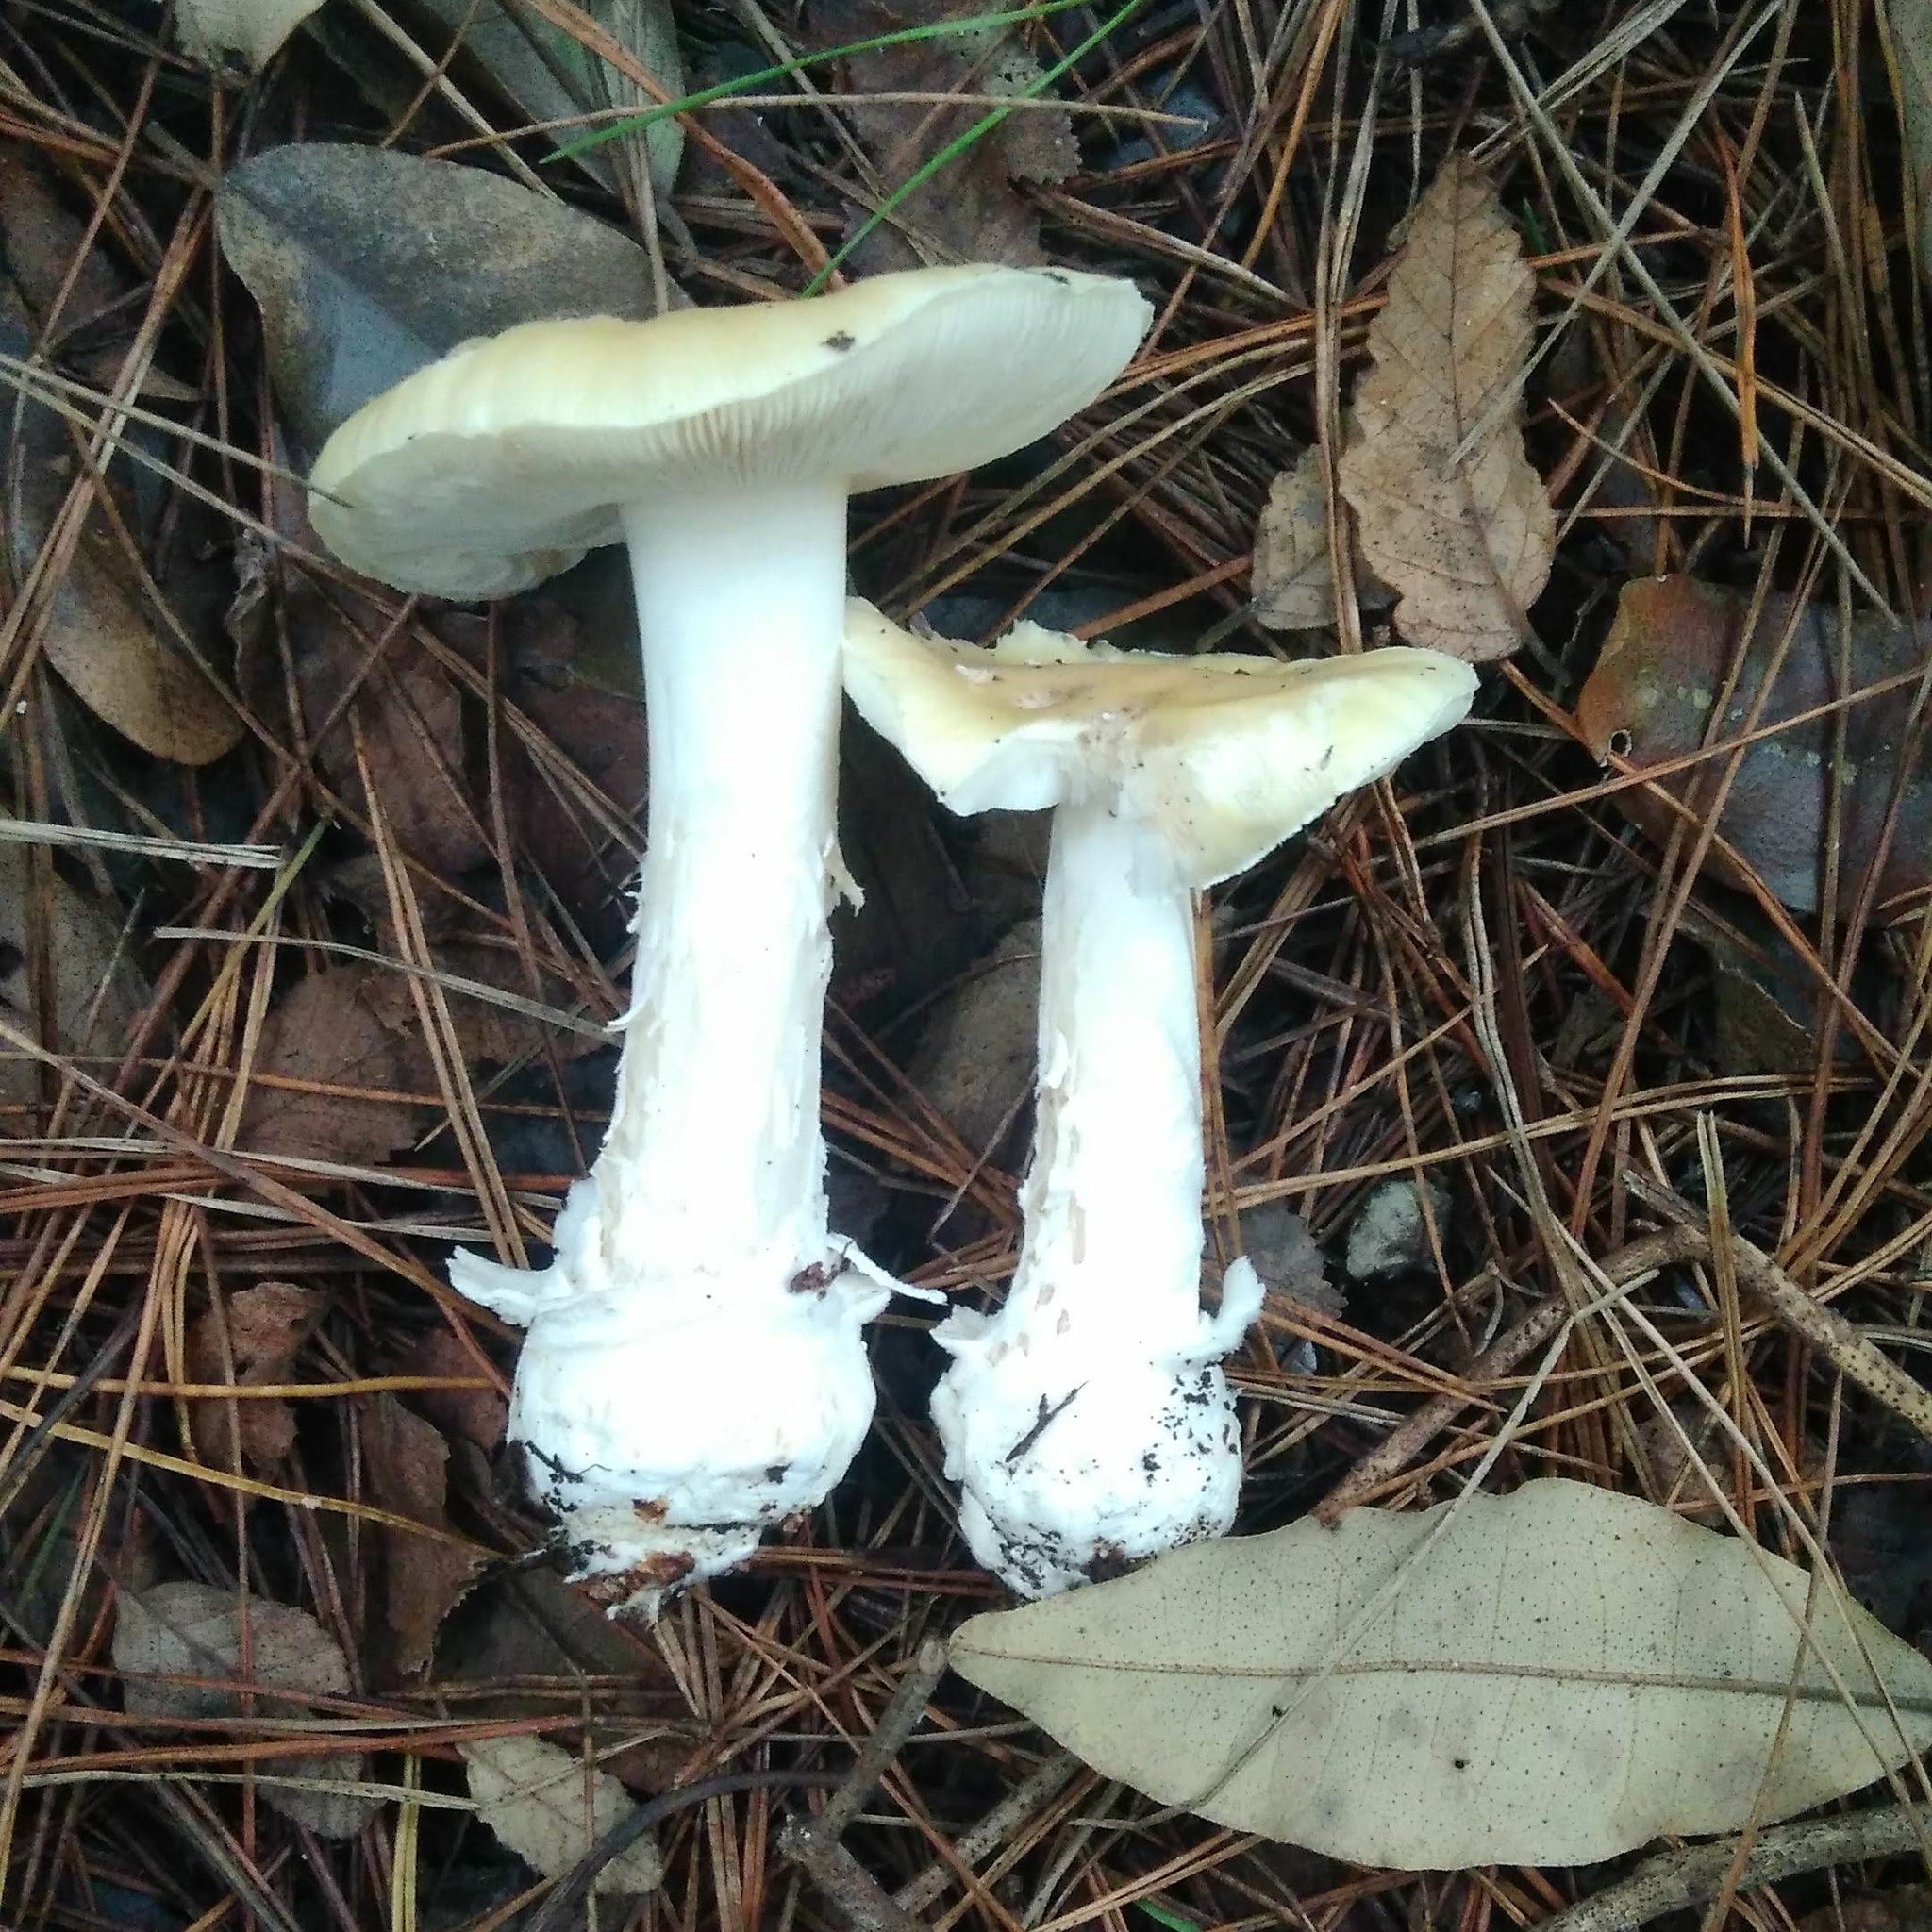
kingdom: Fungi
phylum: Basidiomycota
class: Agaricomycetes
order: Agaricales
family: Amanitaceae
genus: Amanita
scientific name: Amanita toxica
